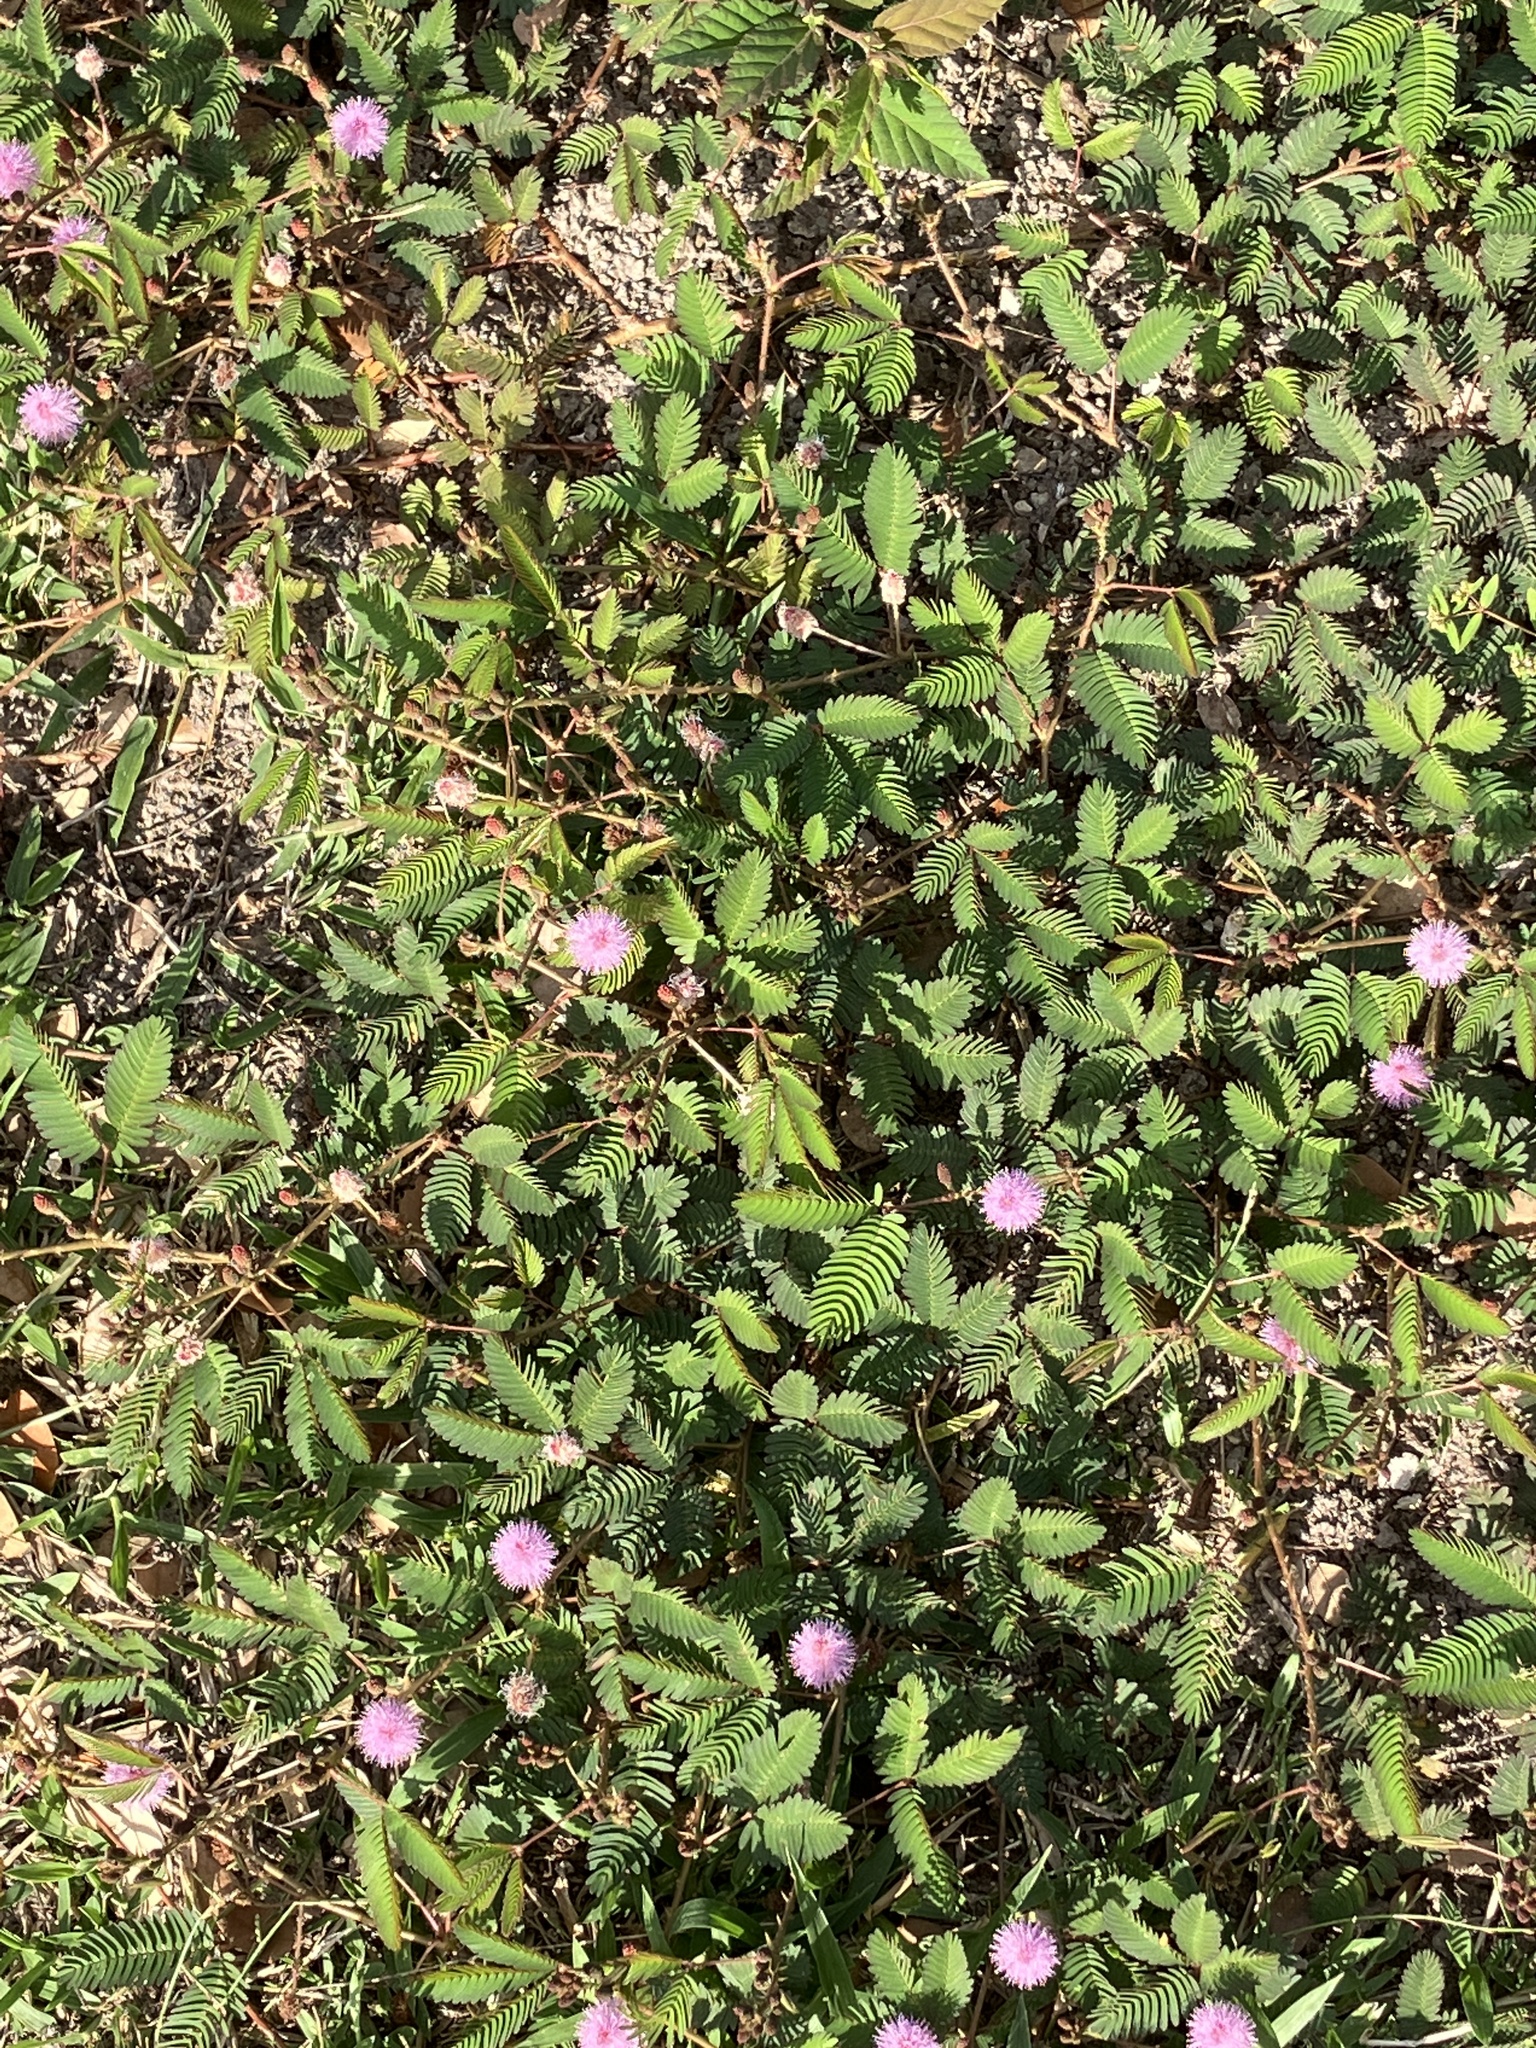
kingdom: Plantae
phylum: Tracheophyta
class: Magnoliopsida
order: Fabales
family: Fabaceae
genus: Mimosa
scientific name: Mimosa pudica
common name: Sensitive plant
